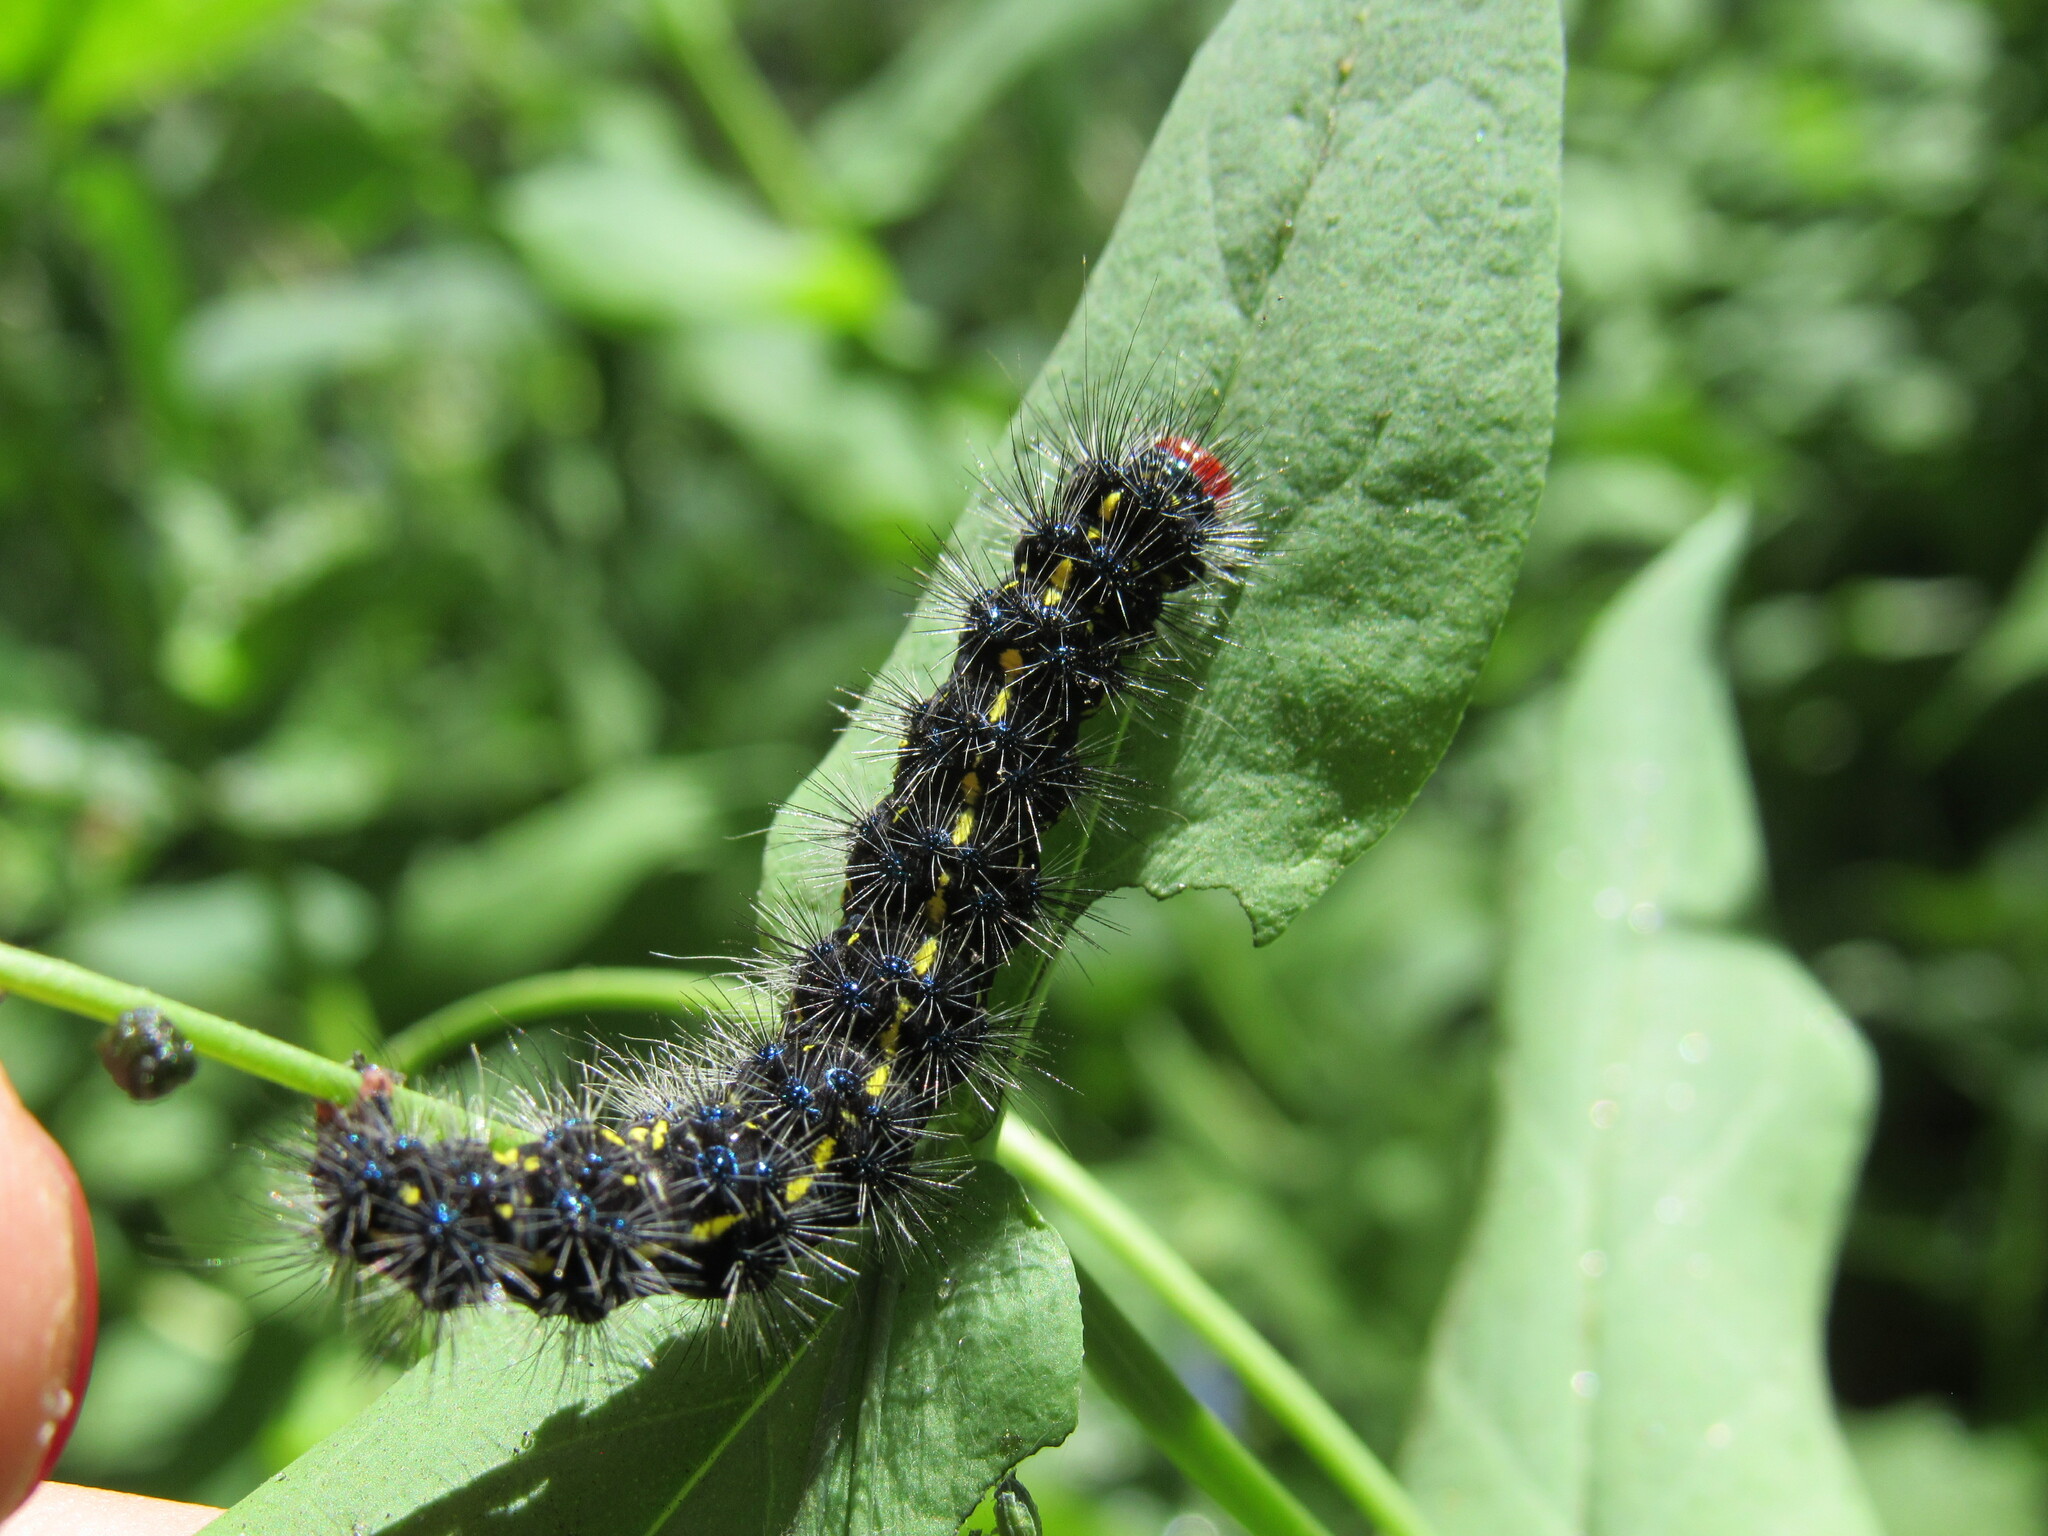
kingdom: Animalia
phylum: Arthropoda
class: Insecta
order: Lepidoptera
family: Erebidae
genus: Gnophaela
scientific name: Gnophaela vermiculata
